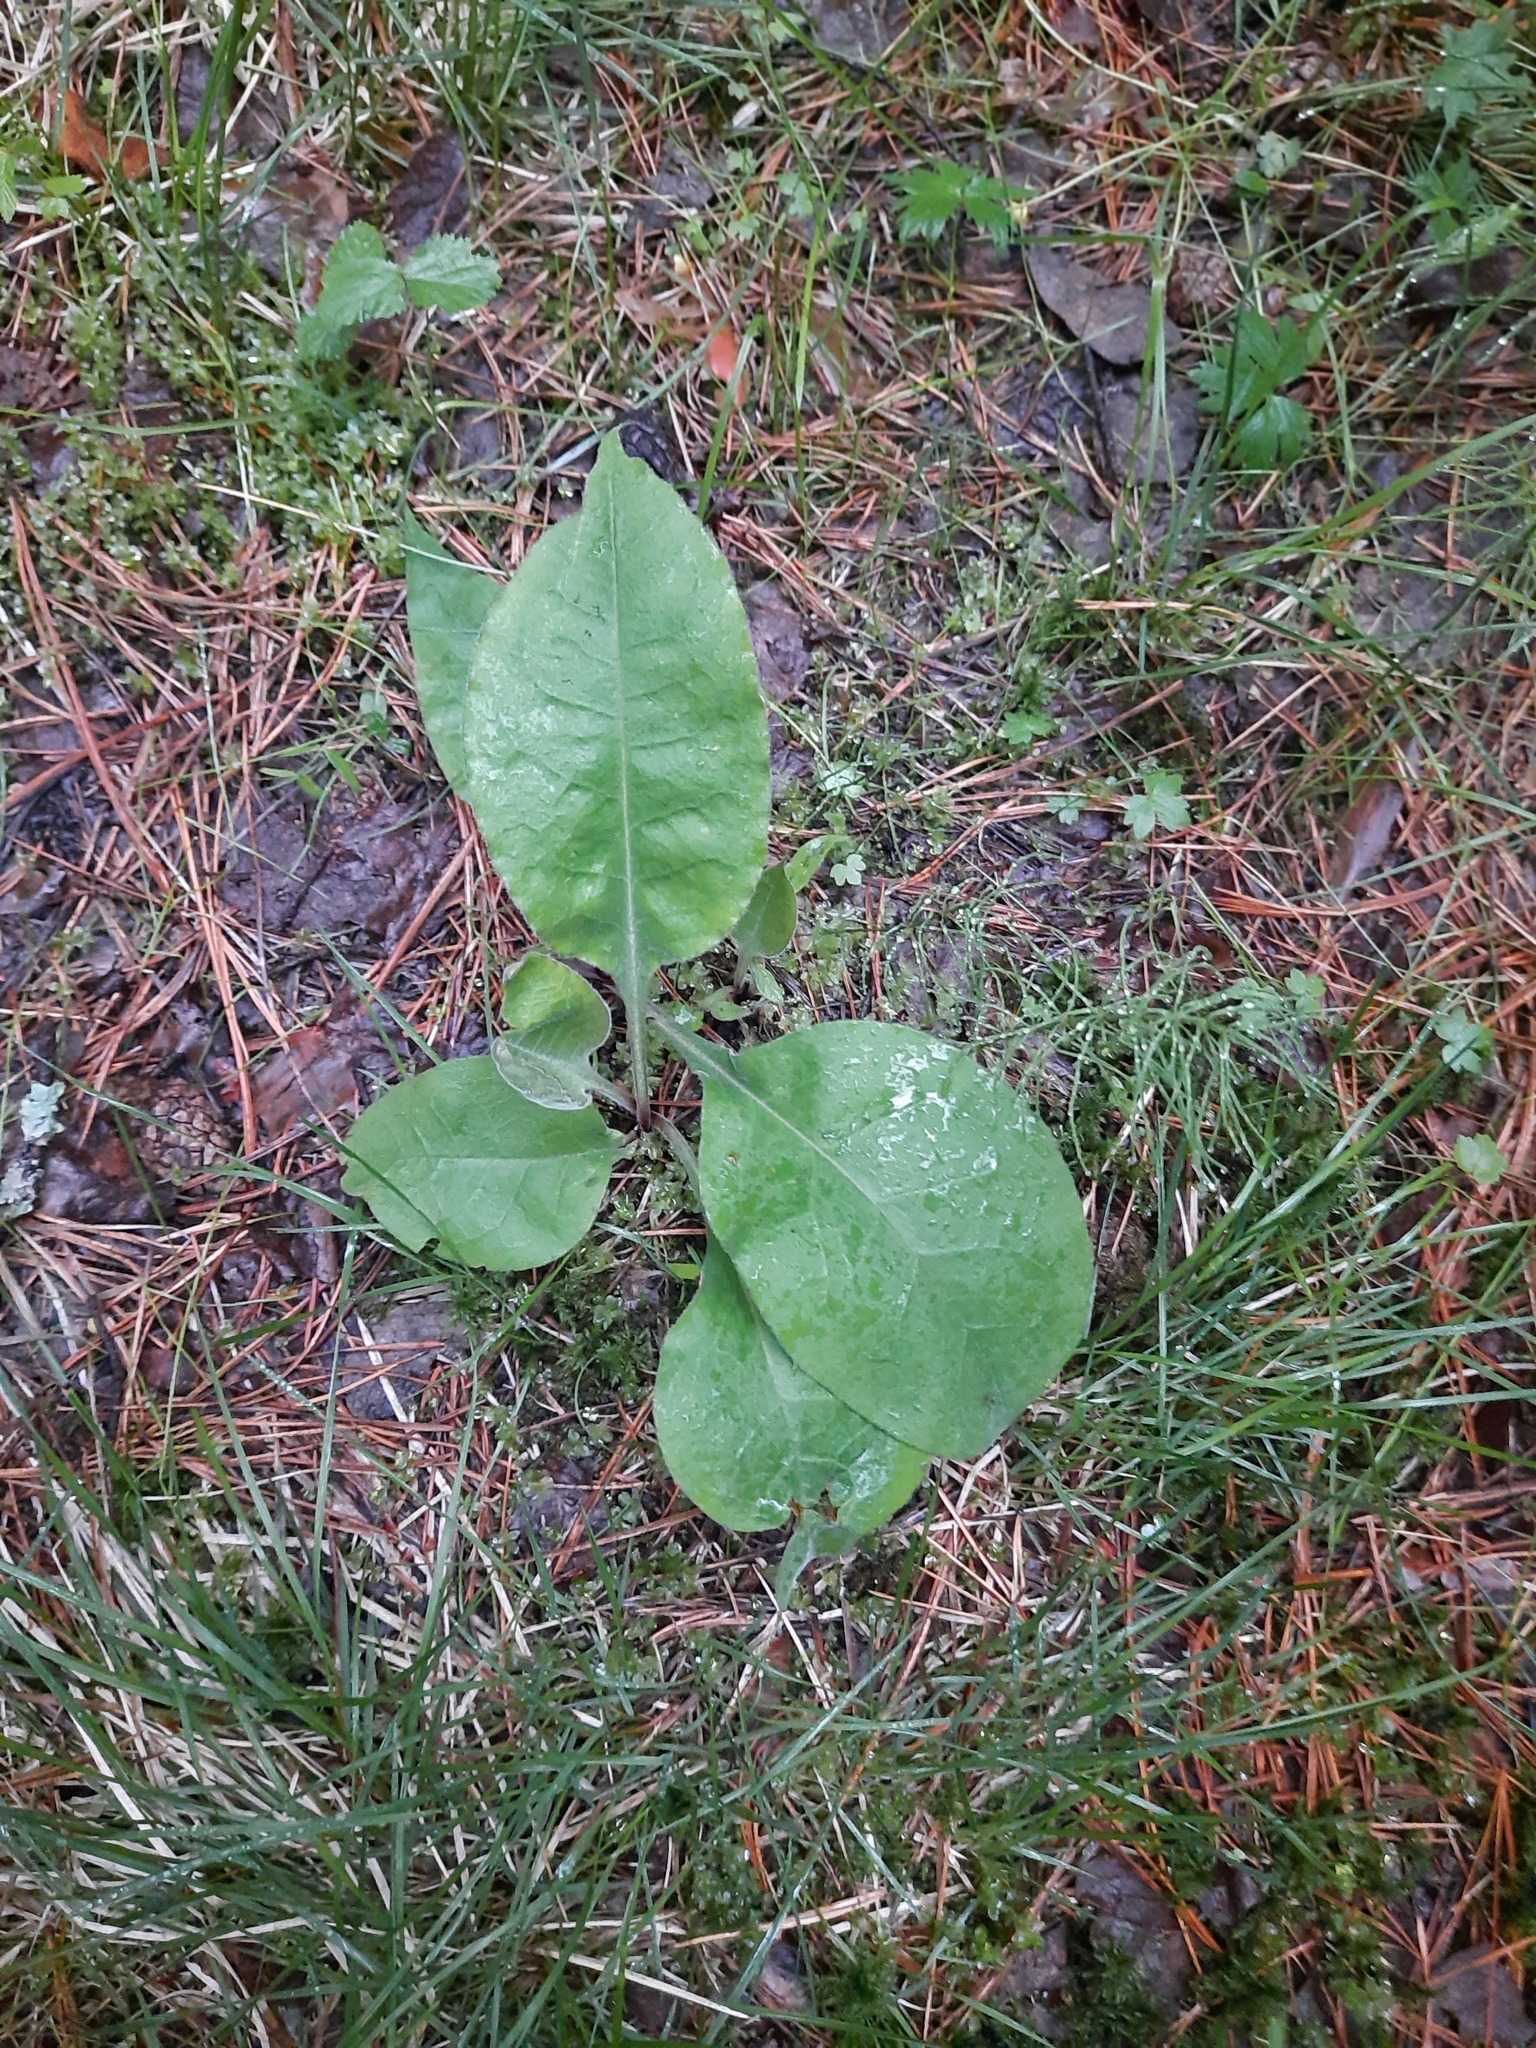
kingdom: Plantae
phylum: Tracheophyta
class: Magnoliopsida
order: Boraginales
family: Boraginaceae
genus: Pulmonaria
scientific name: Pulmonaria mollis
